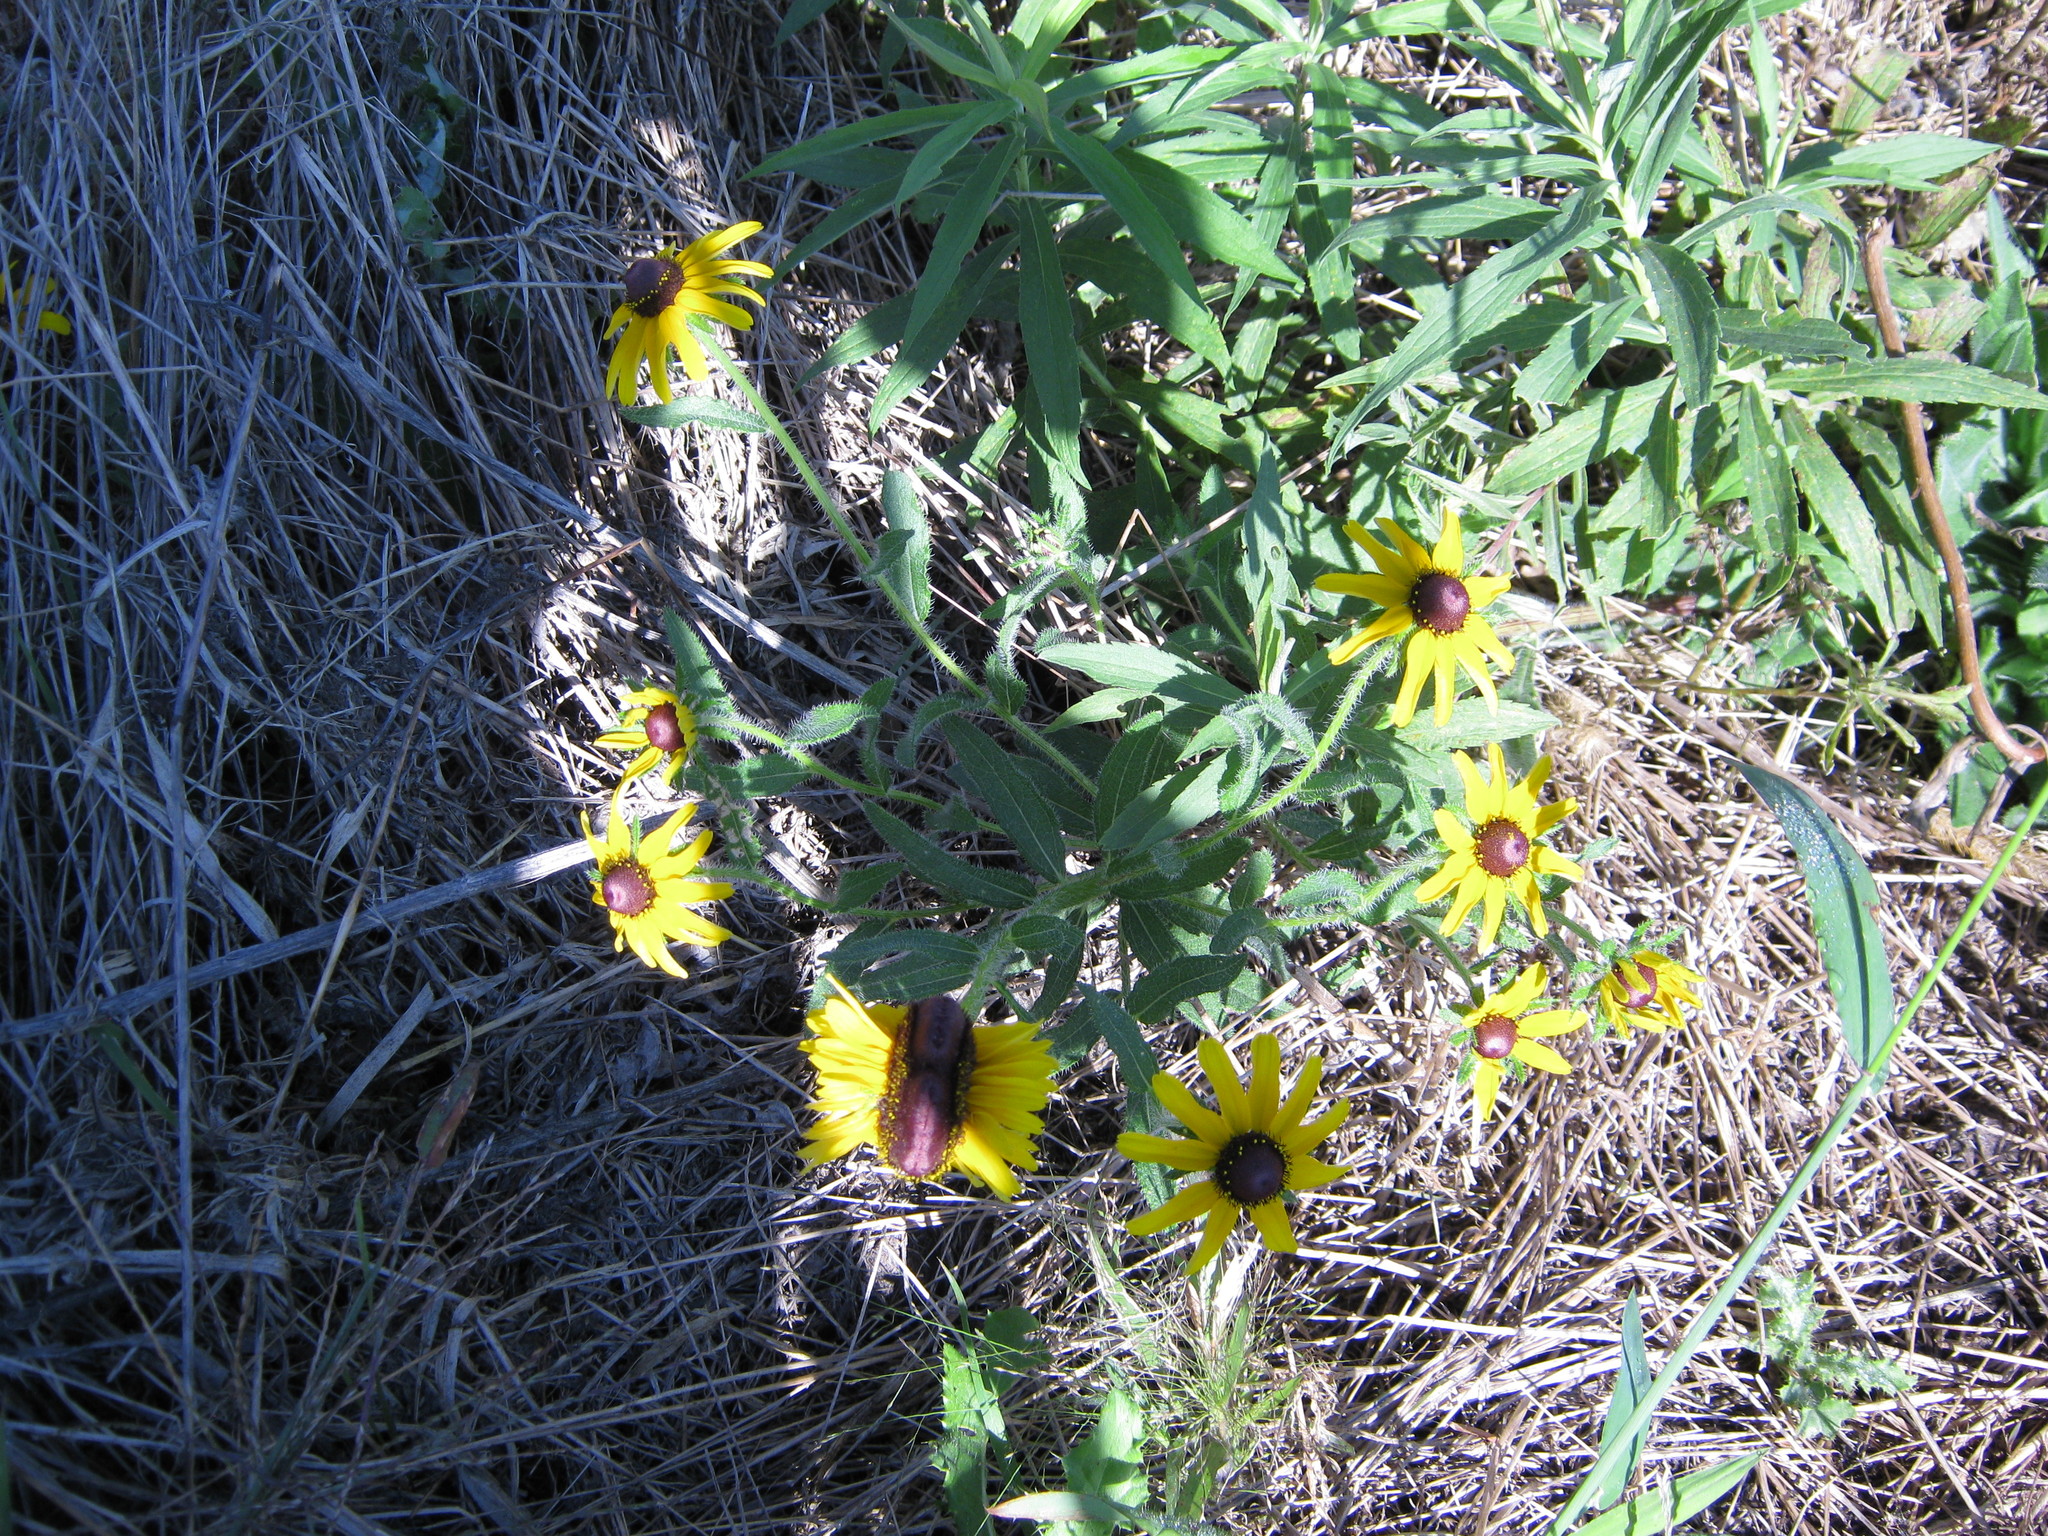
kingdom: Plantae
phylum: Tracheophyta
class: Magnoliopsida
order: Asterales
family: Asteraceae
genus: Rudbeckia
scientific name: Rudbeckia hirta
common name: Black-eyed-susan
